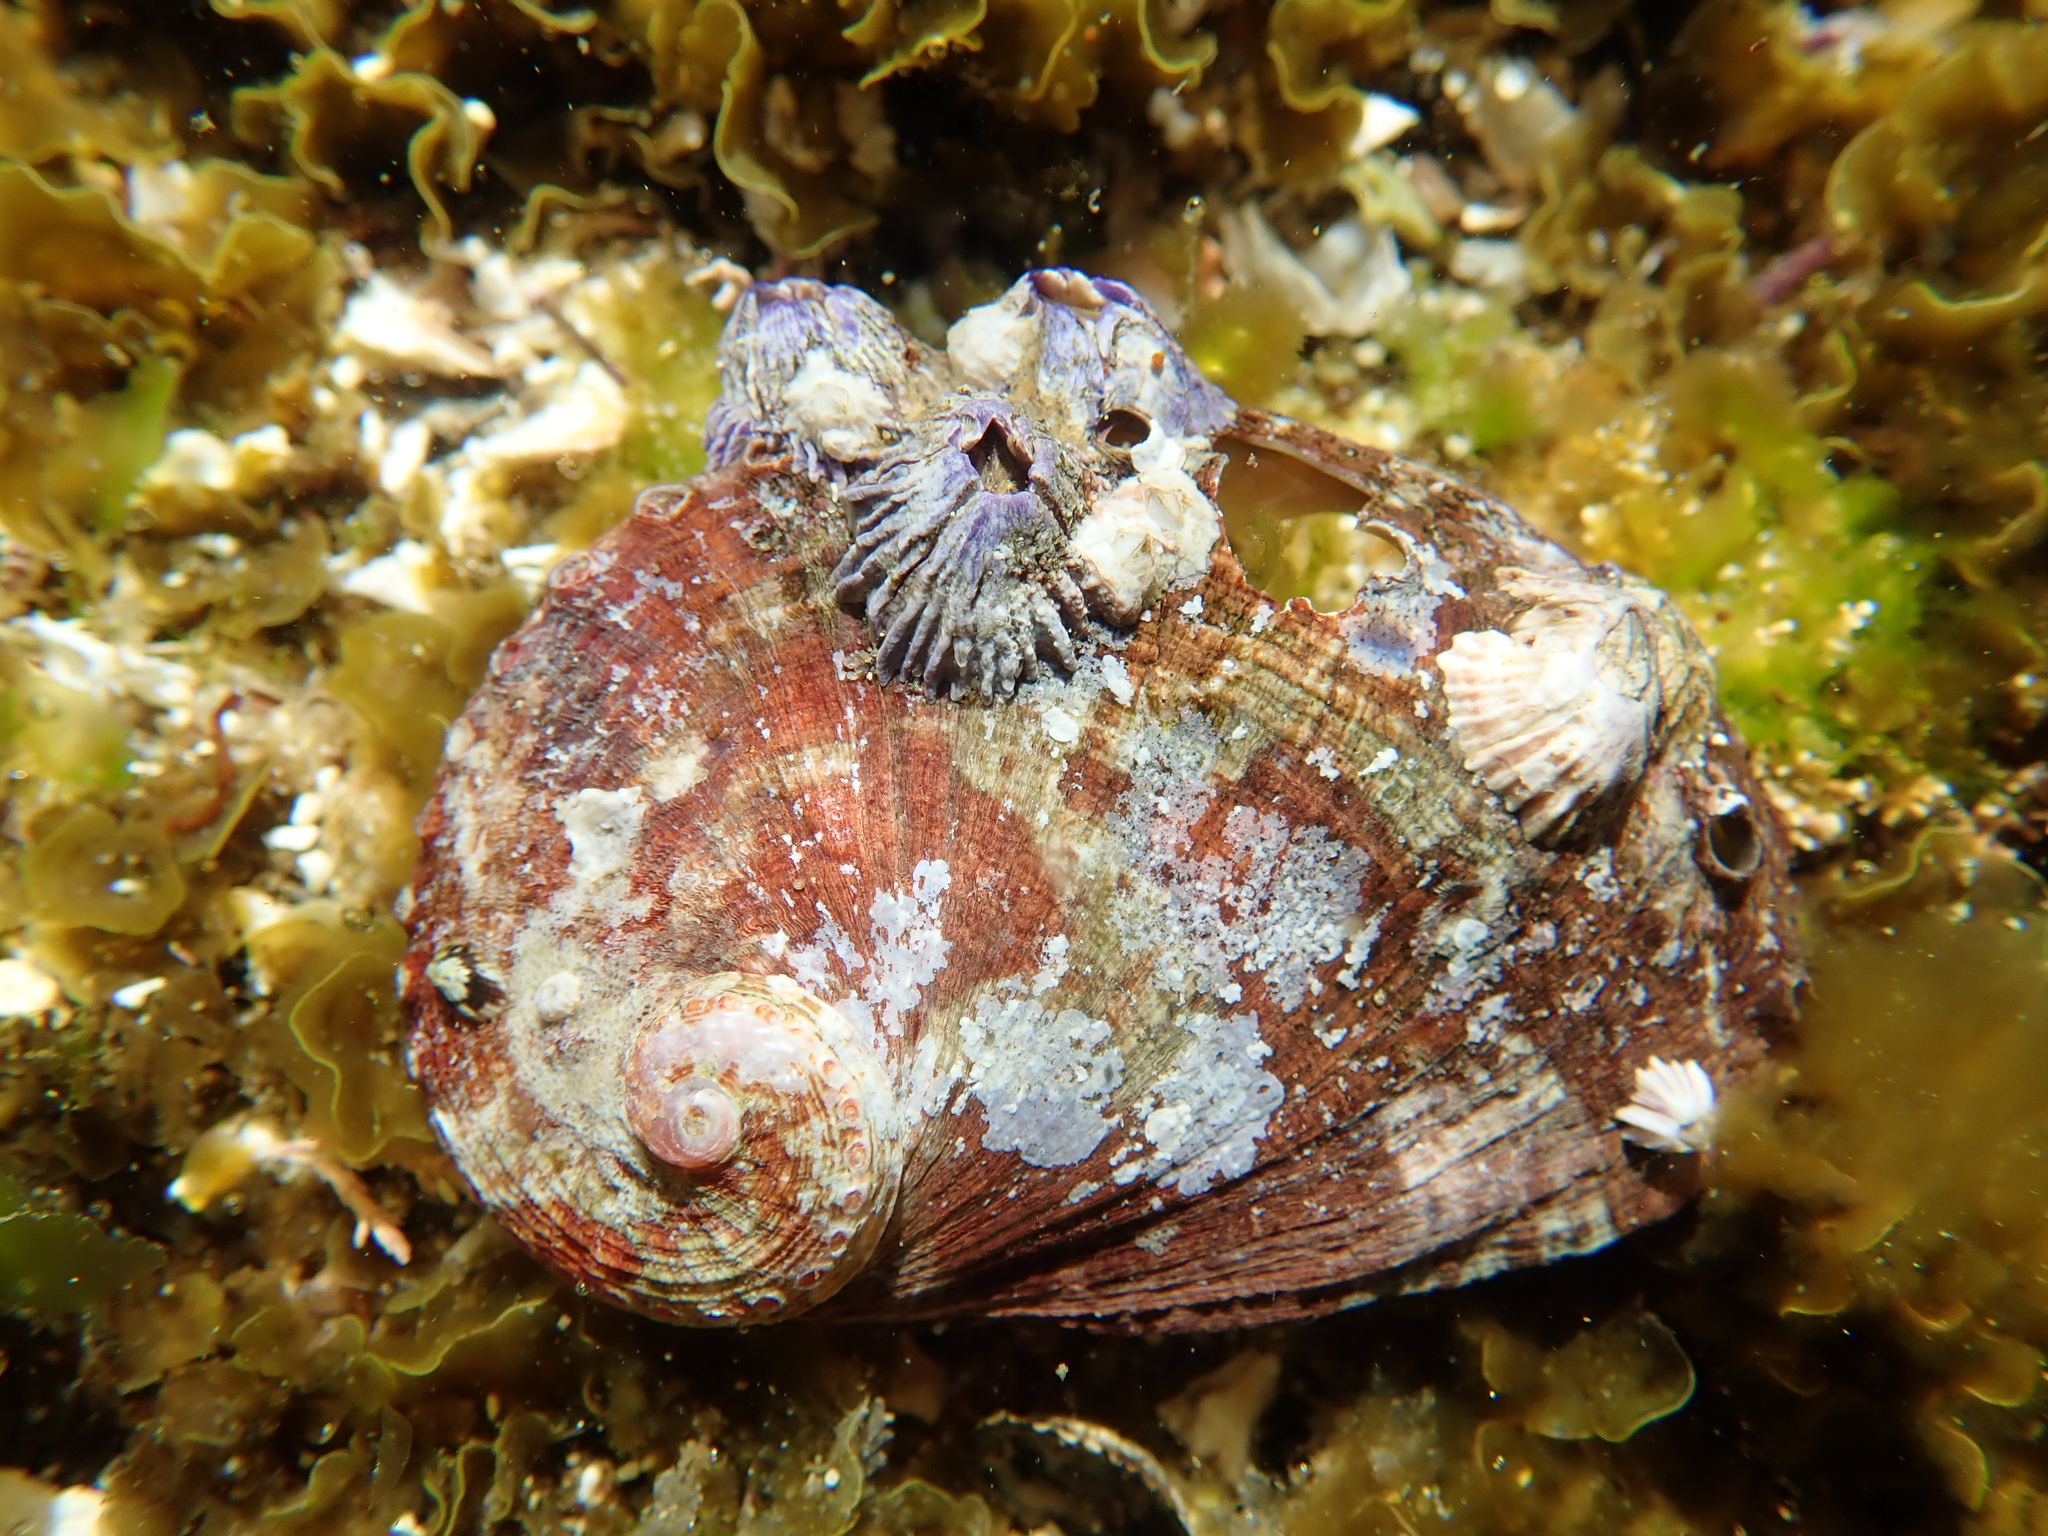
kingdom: Animalia
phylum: Mollusca
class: Gastropoda
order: Lepetellida
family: Haliotidae
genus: Haliotis
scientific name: Haliotis coccoradiata
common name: Reddish-rayed abalone
